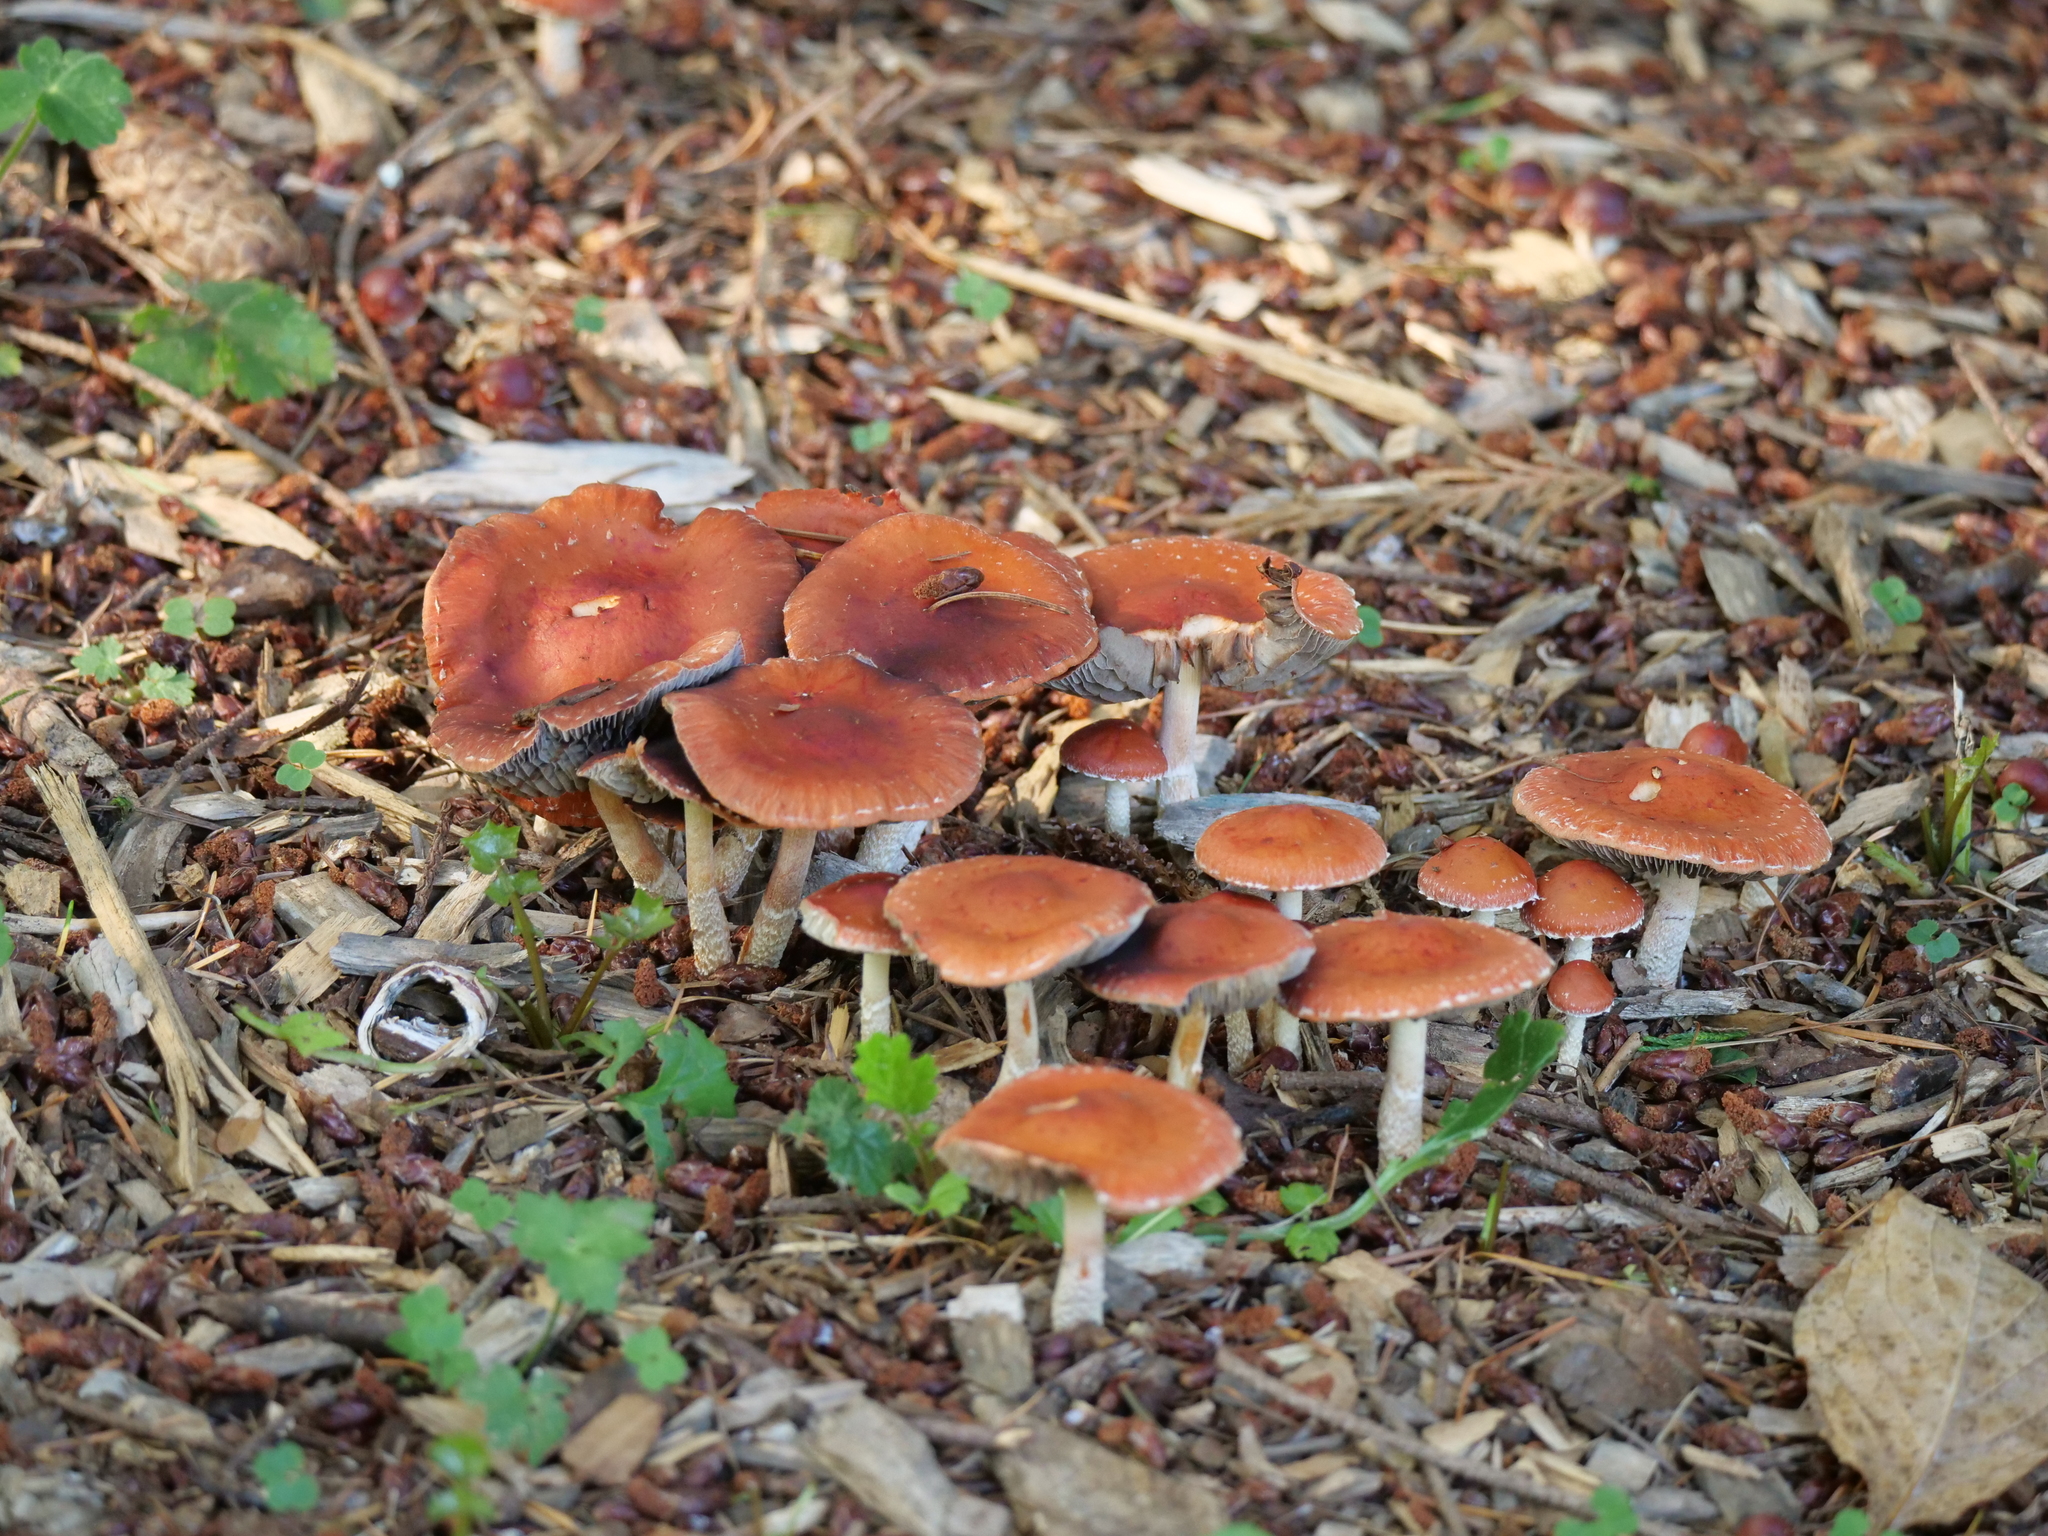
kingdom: Fungi
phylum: Basidiomycota
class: Agaricomycetes
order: Agaricales
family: Strophariaceae
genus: Leratiomyces
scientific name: Leratiomyces ceres
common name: Redlead roundhead
